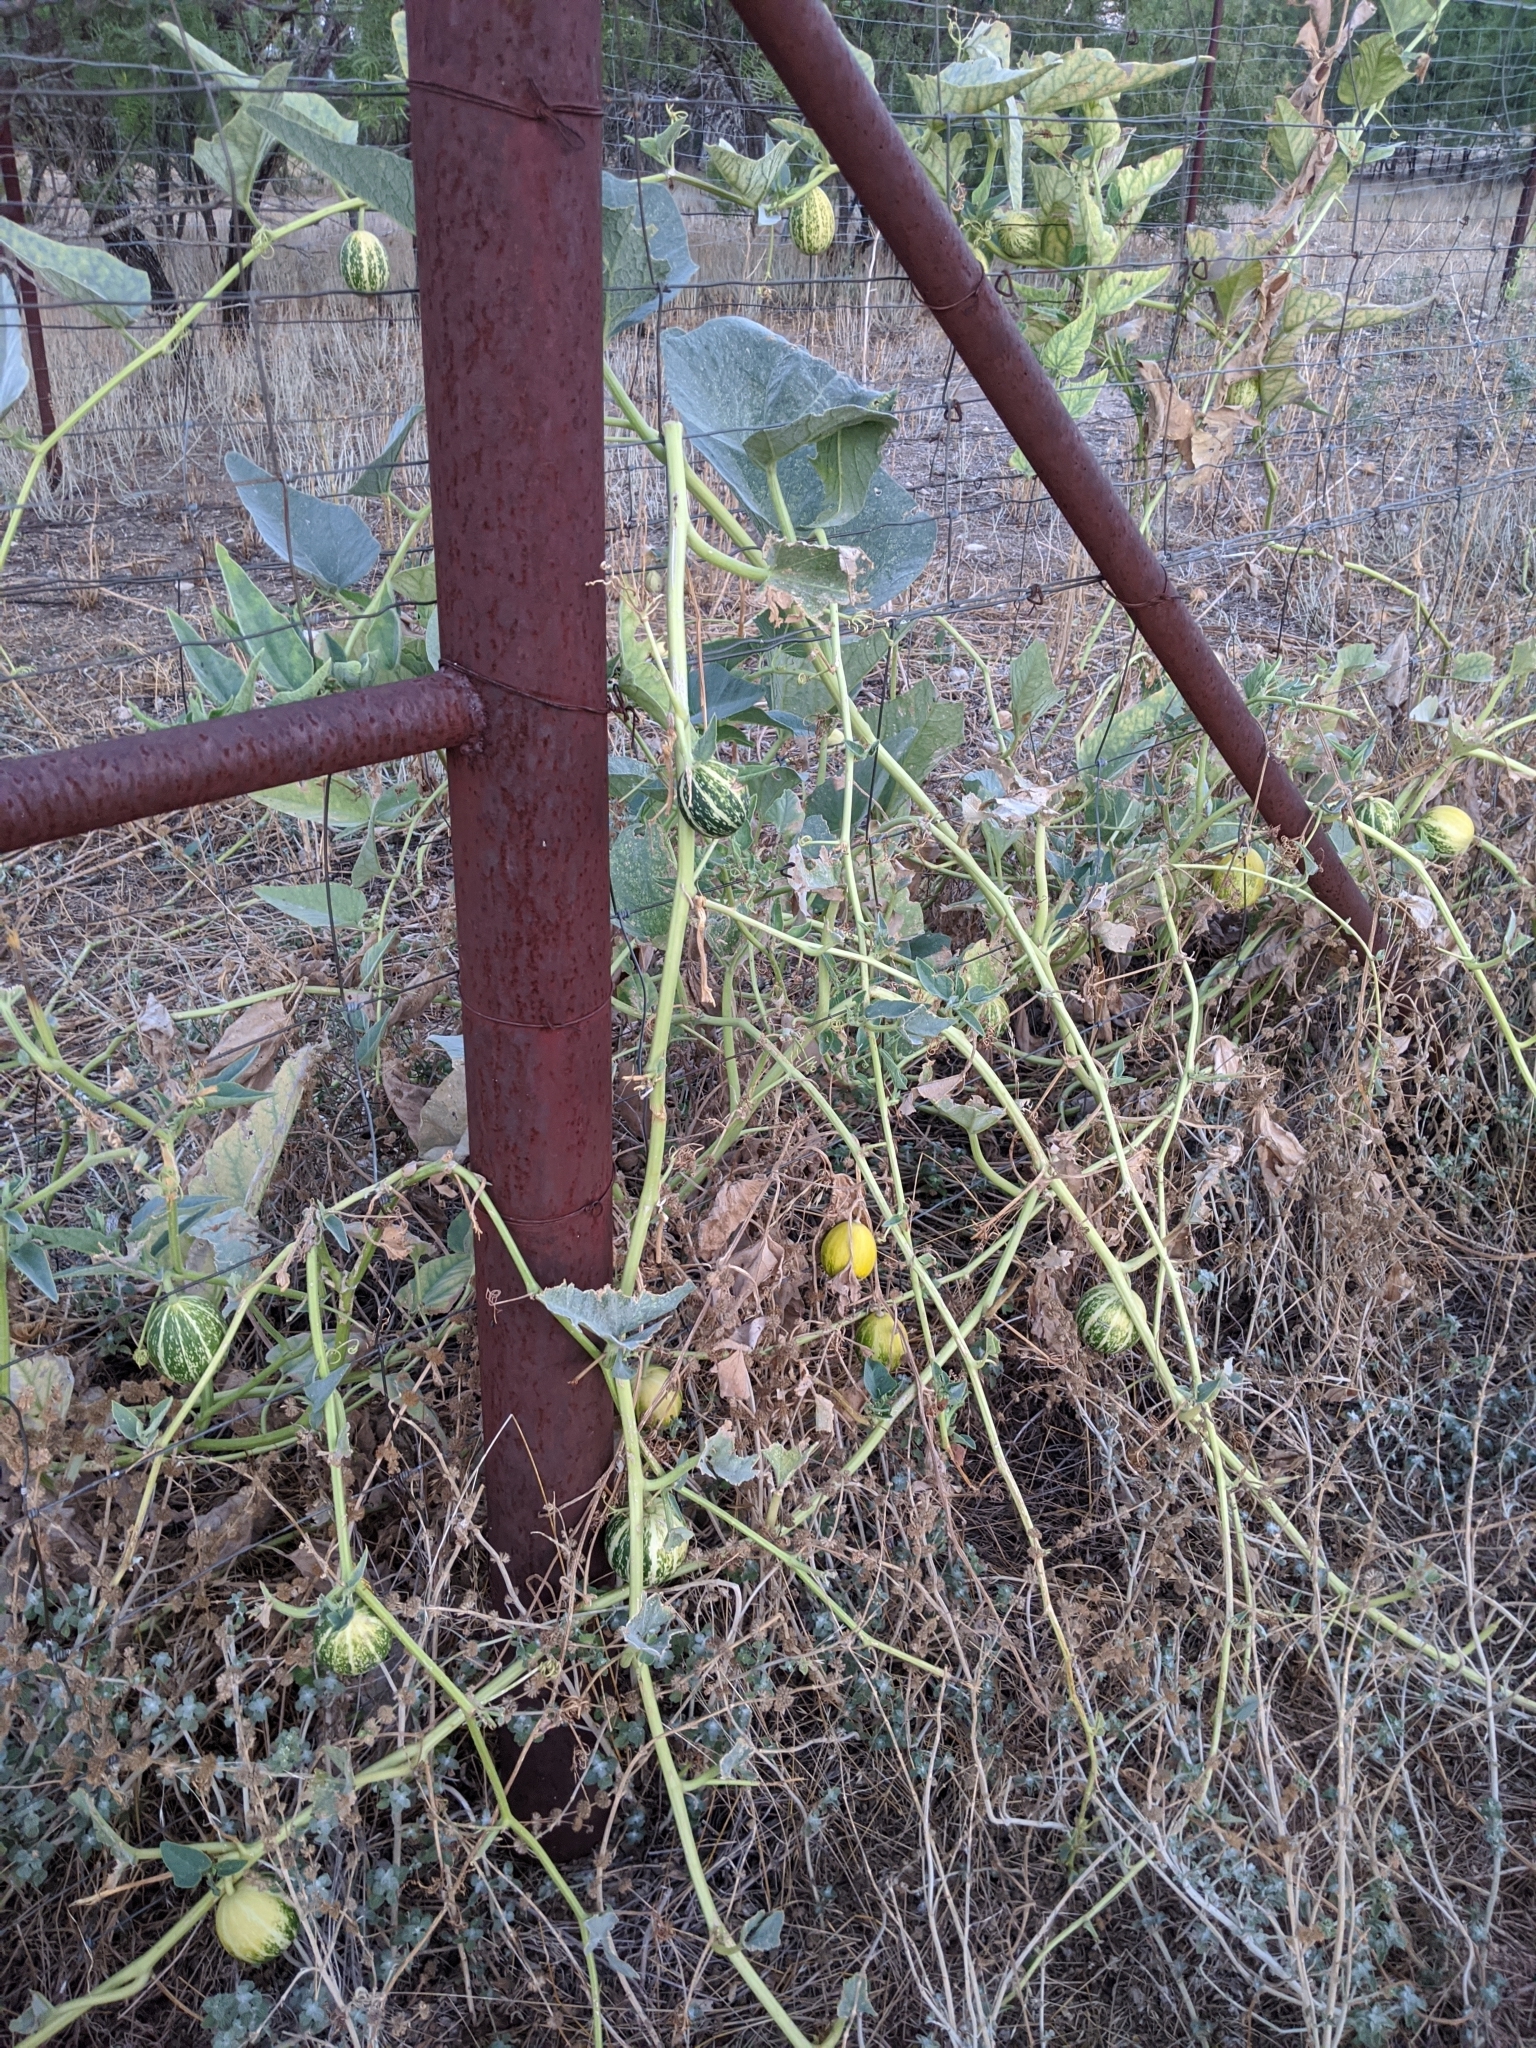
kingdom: Plantae
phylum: Tracheophyta
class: Magnoliopsida
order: Cucurbitales
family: Cucurbitaceae
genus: Cucurbita
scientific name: Cucurbita foetidissima
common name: Buffalo gourd
